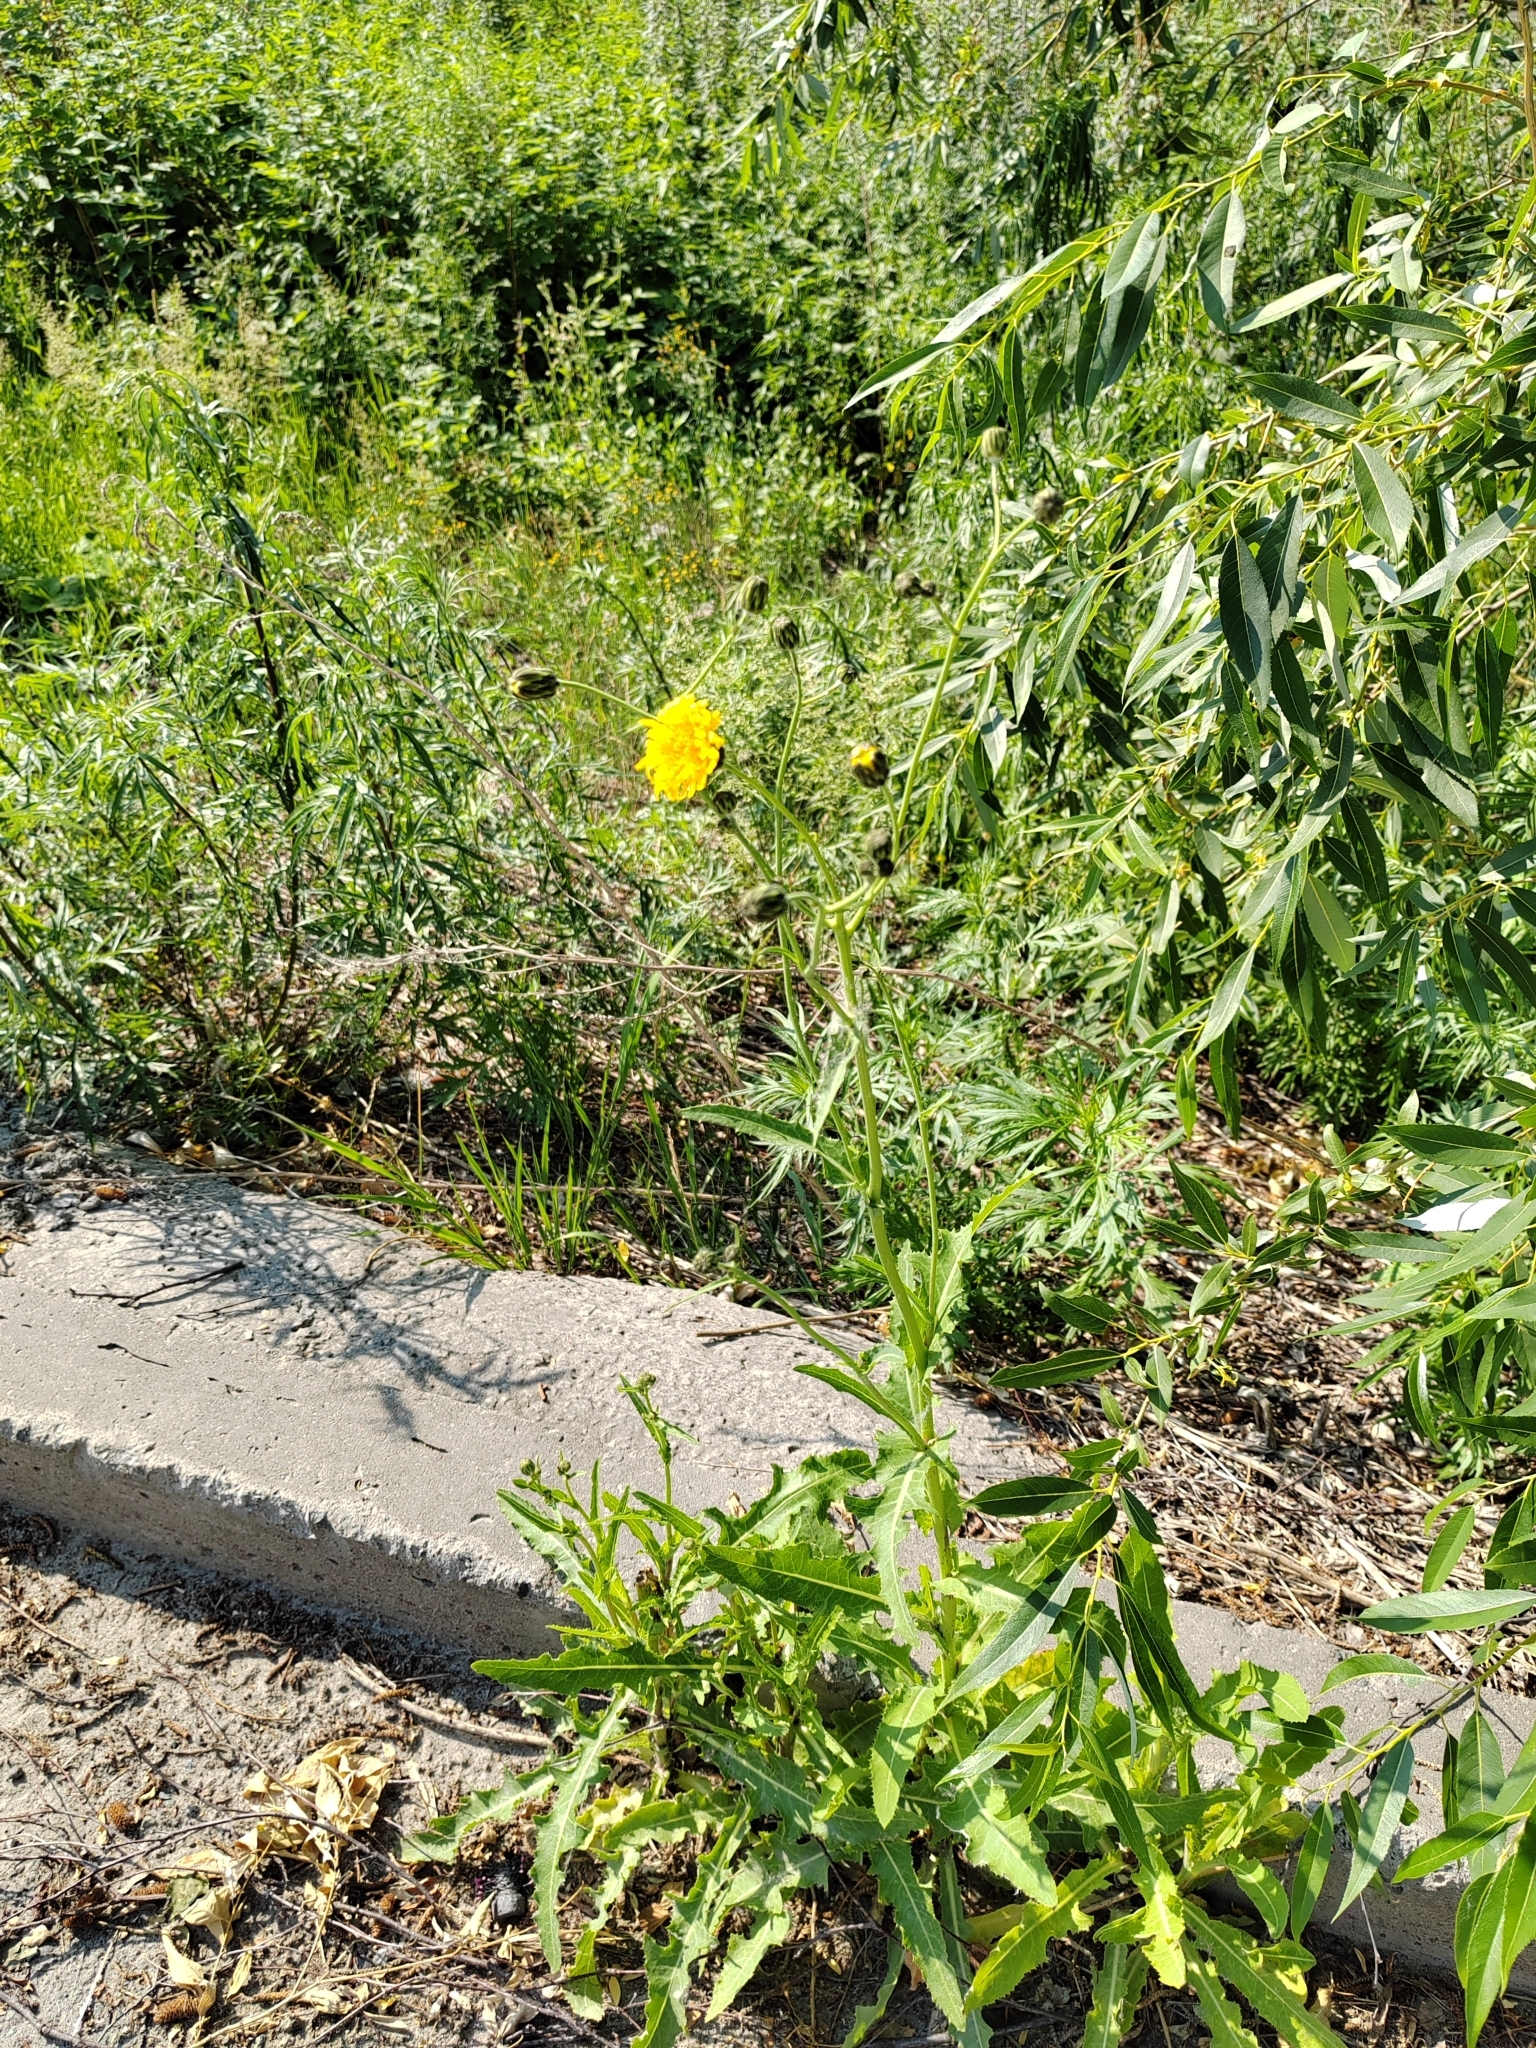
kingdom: Plantae
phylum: Tracheophyta
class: Magnoliopsida
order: Asterales
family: Asteraceae
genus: Sonchus
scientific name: Sonchus arvensis
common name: Perennial sow-thistle
